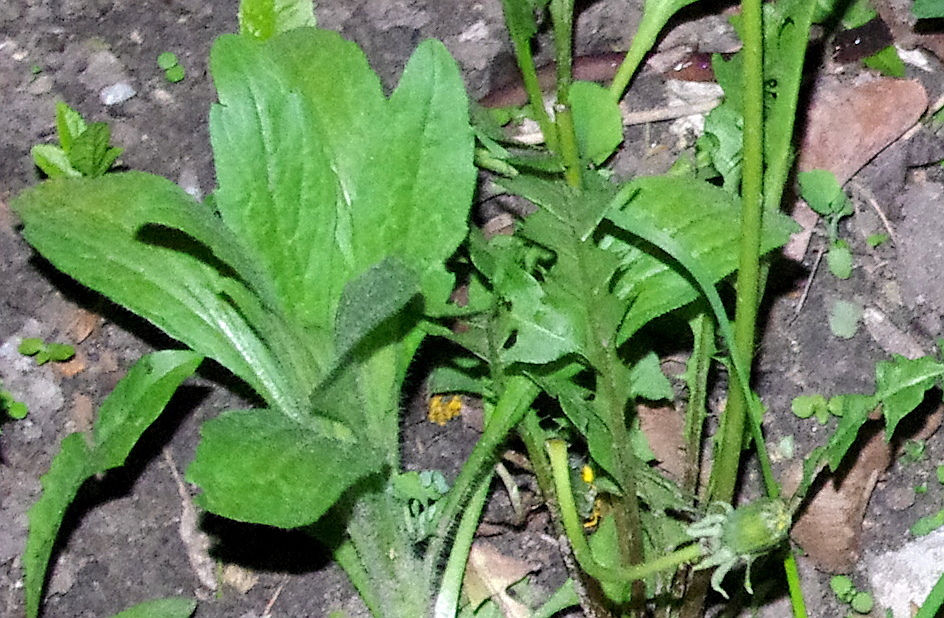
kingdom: Plantae
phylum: Tracheophyta
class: Magnoliopsida
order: Asterales
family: Asteraceae
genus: Erigeron
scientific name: Erigeron annuus
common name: Tall fleabane
